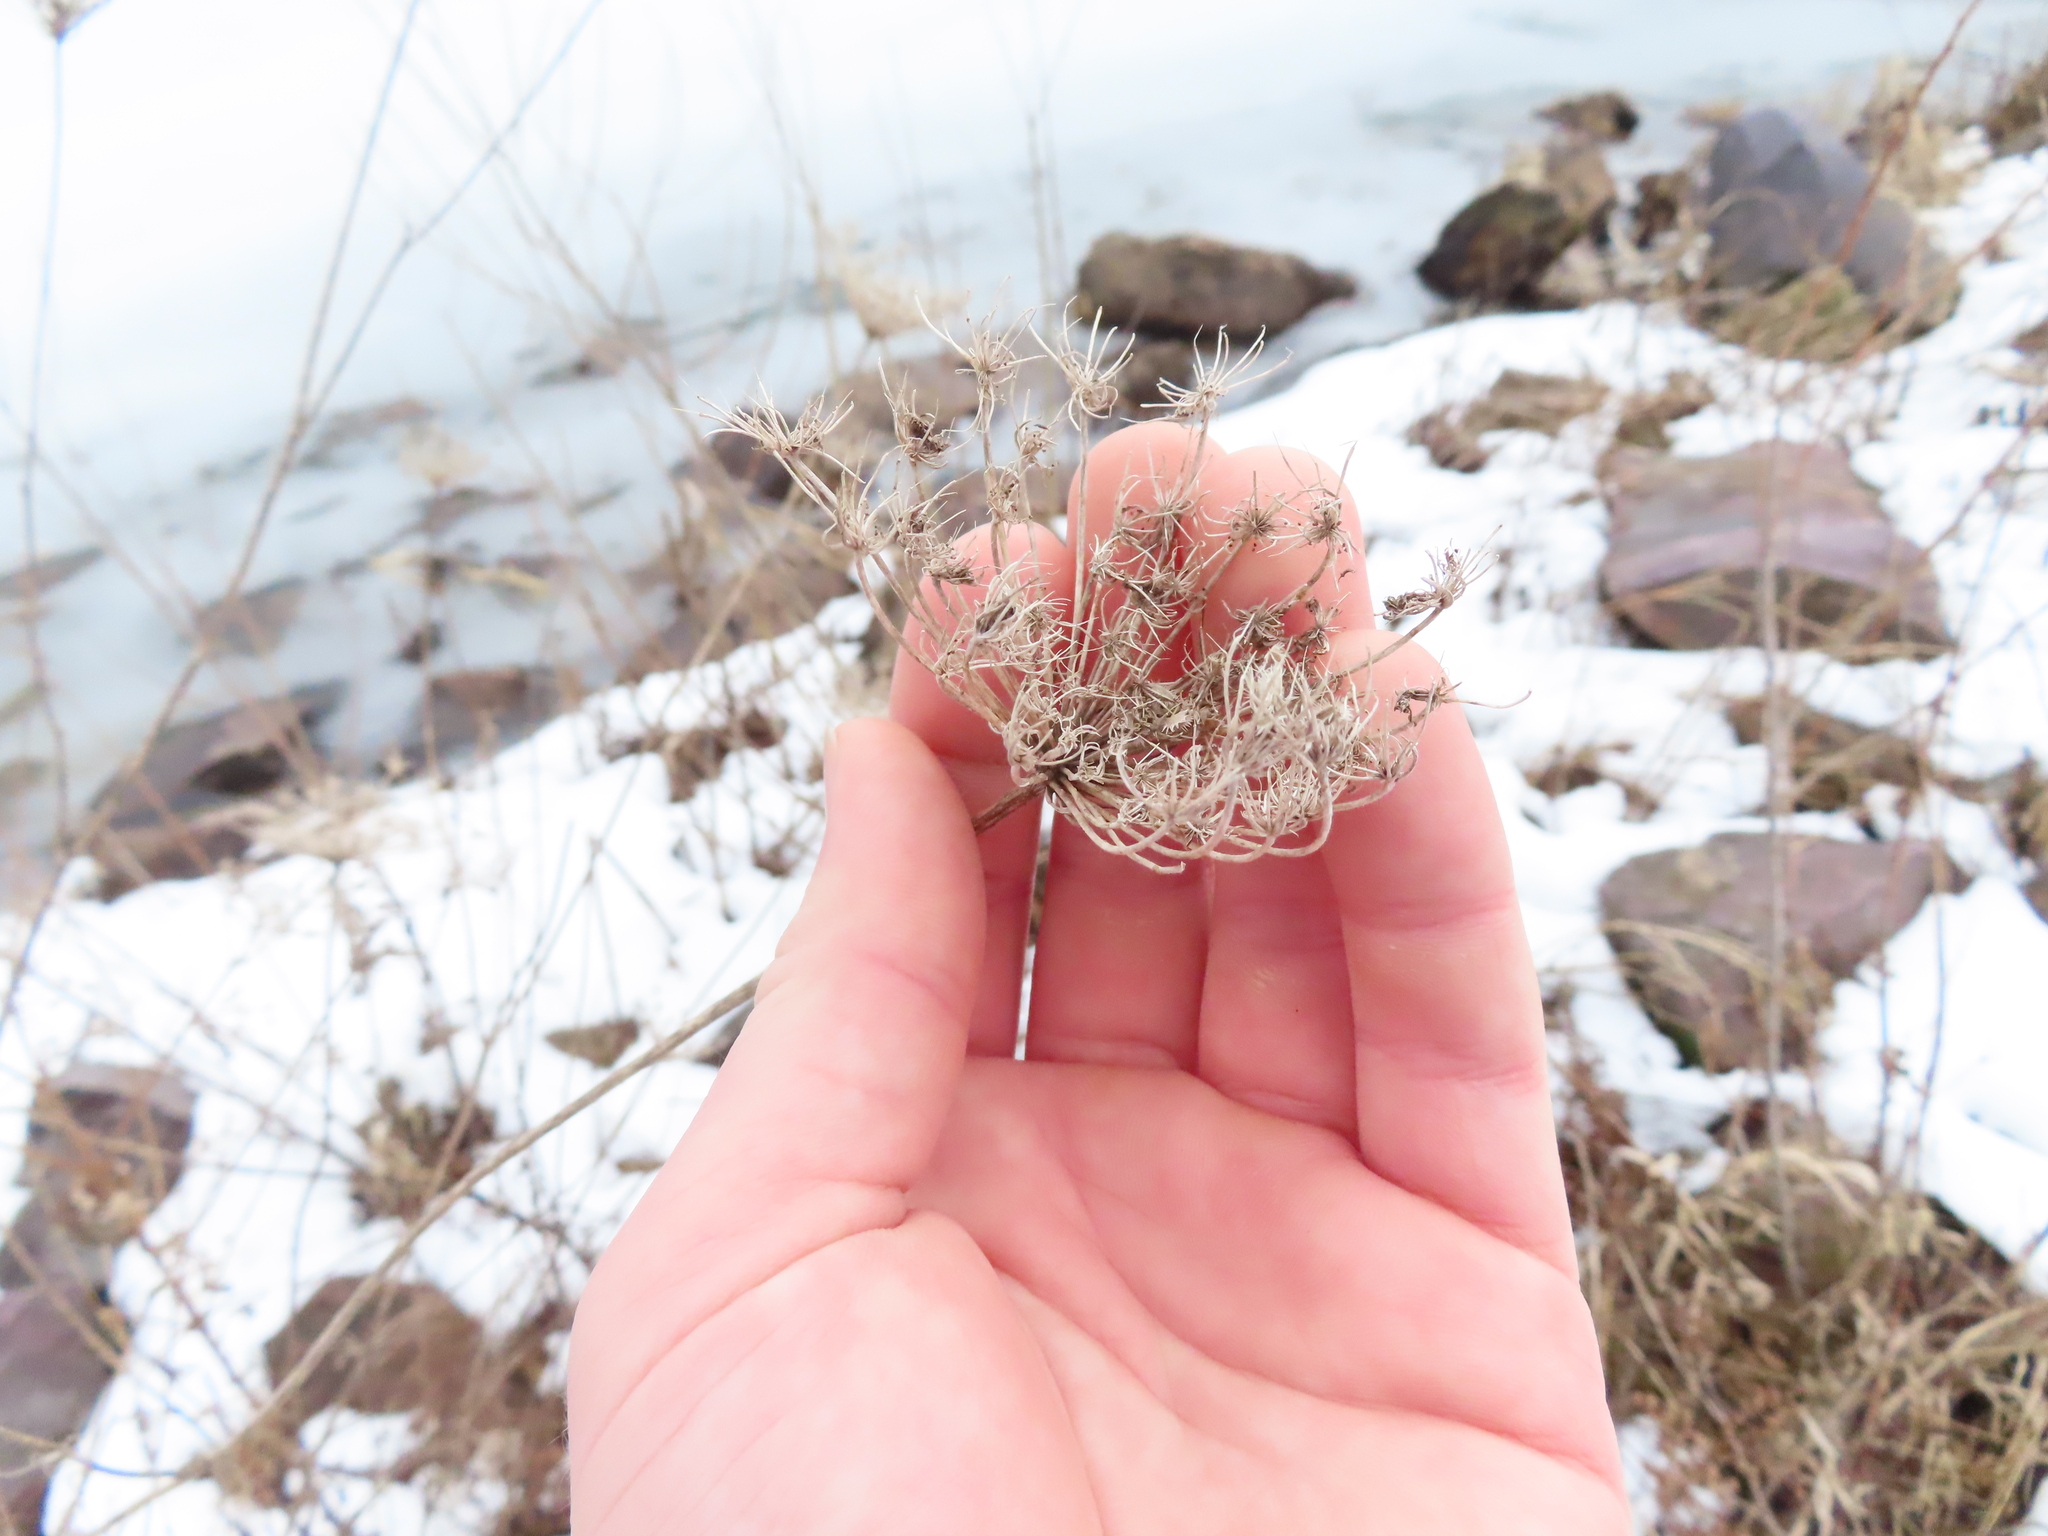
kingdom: Plantae
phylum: Tracheophyta
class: Magnoliopsida
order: Apiales
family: Apiaceae
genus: Daucus
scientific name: Daucus carota
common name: Wild carrot
